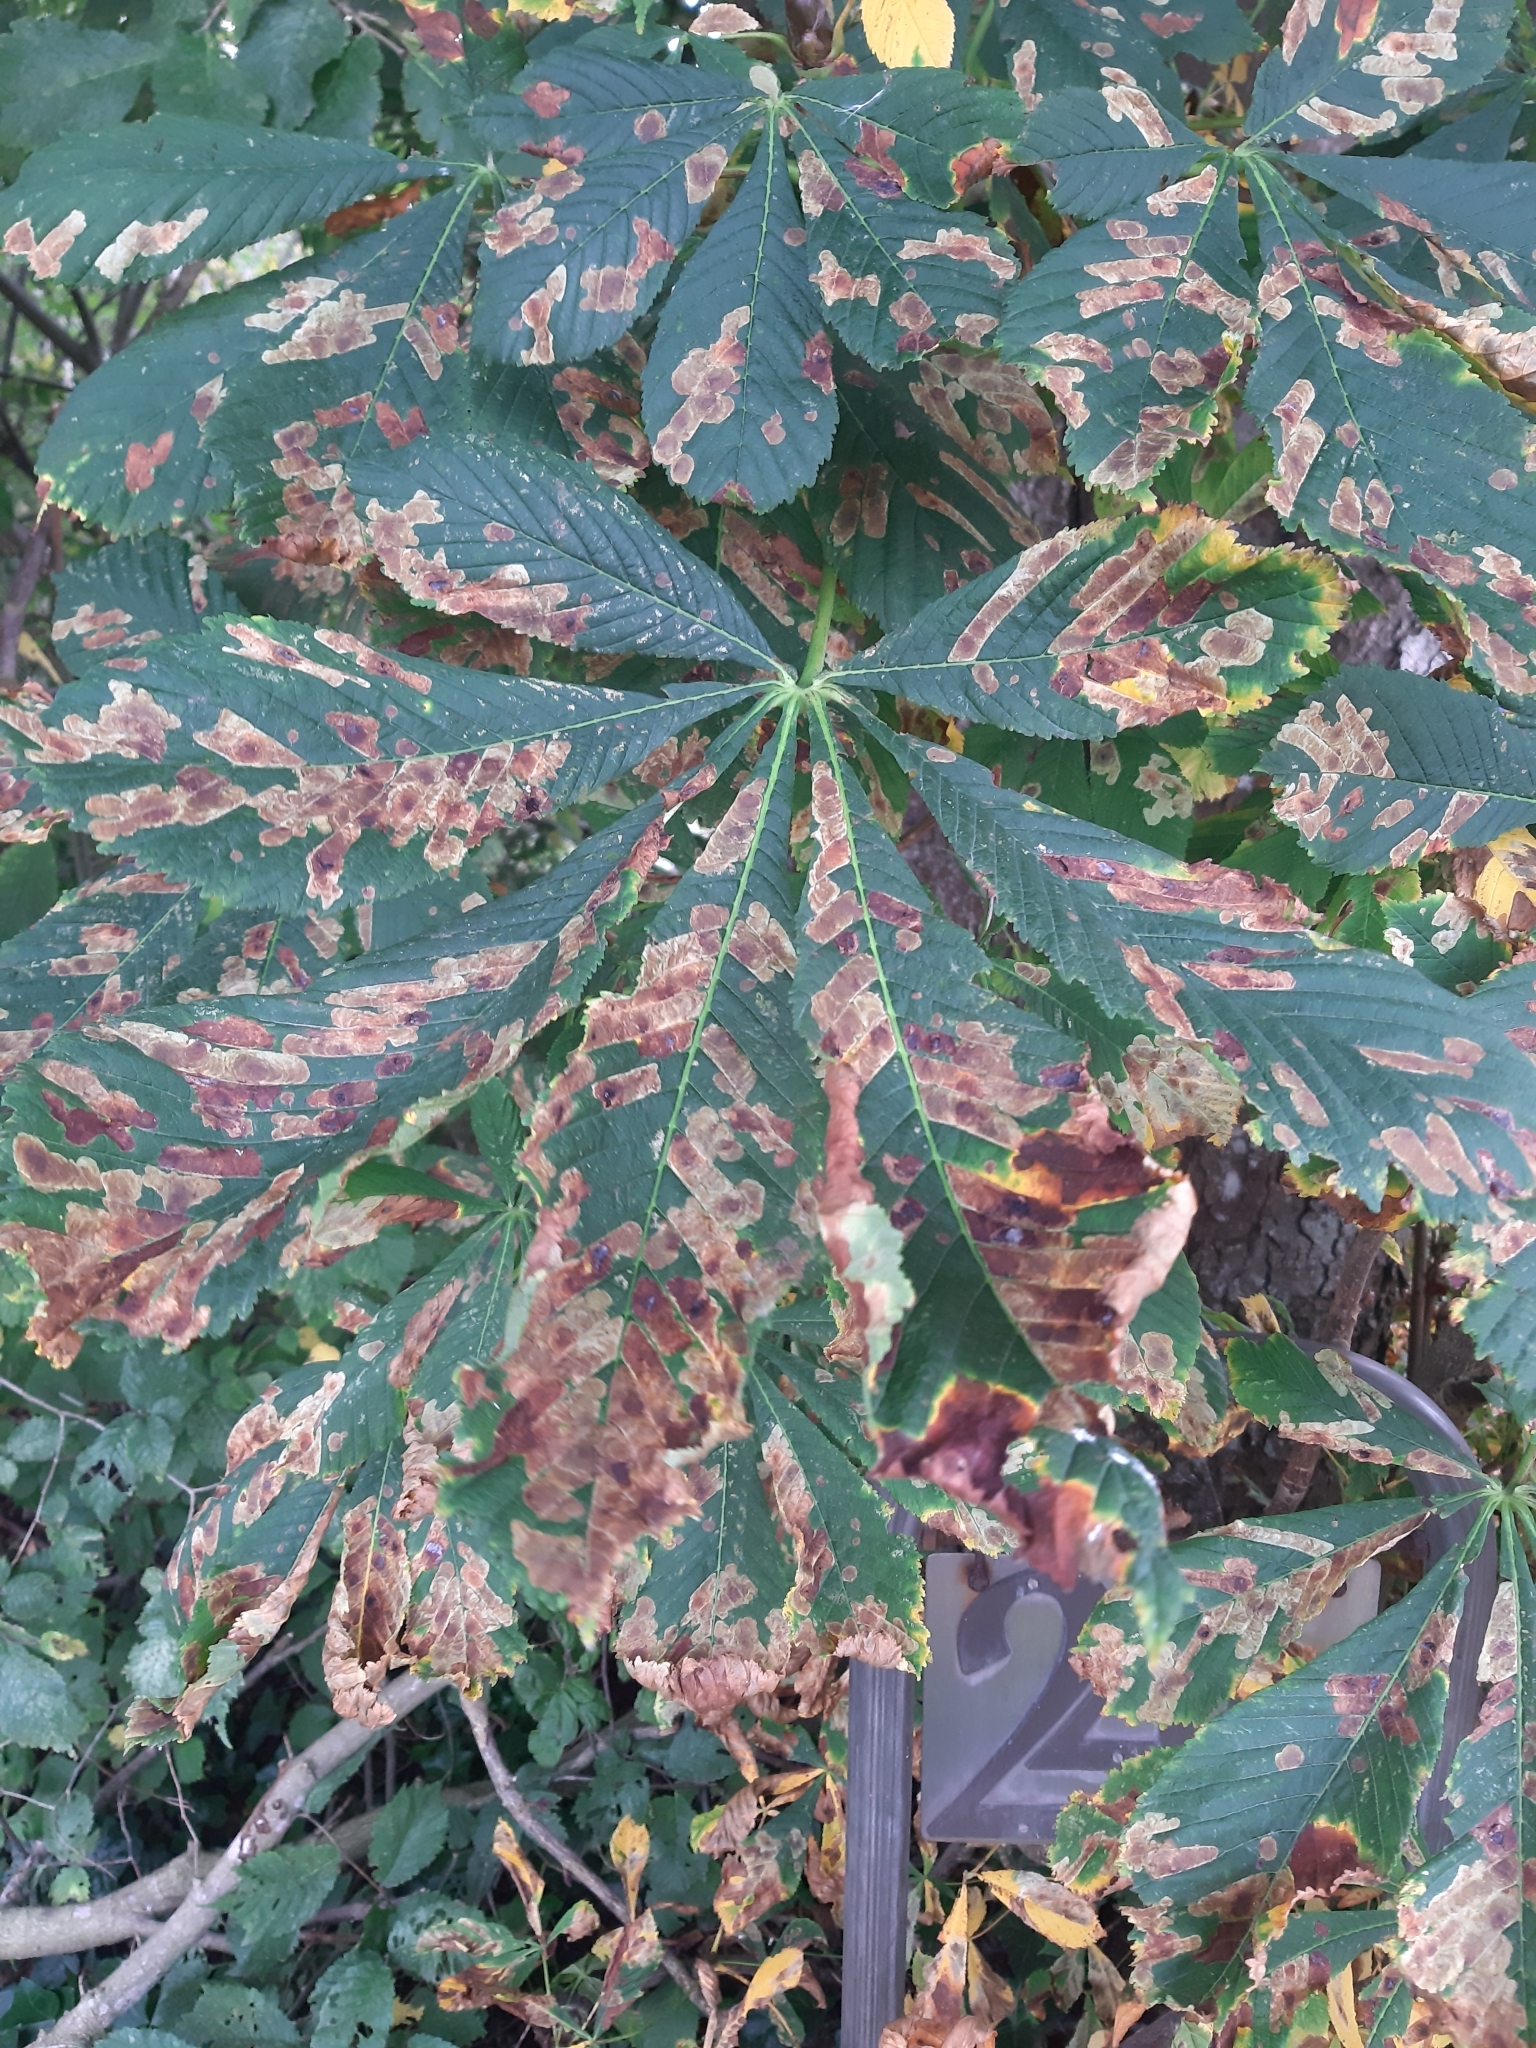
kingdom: Animalia
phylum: Arthropoda
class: Insecta
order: Lepidoptera
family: Gracillariidae
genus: Cameraria
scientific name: Cameraria ohridella
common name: Horse-chestnut leaf-miner
